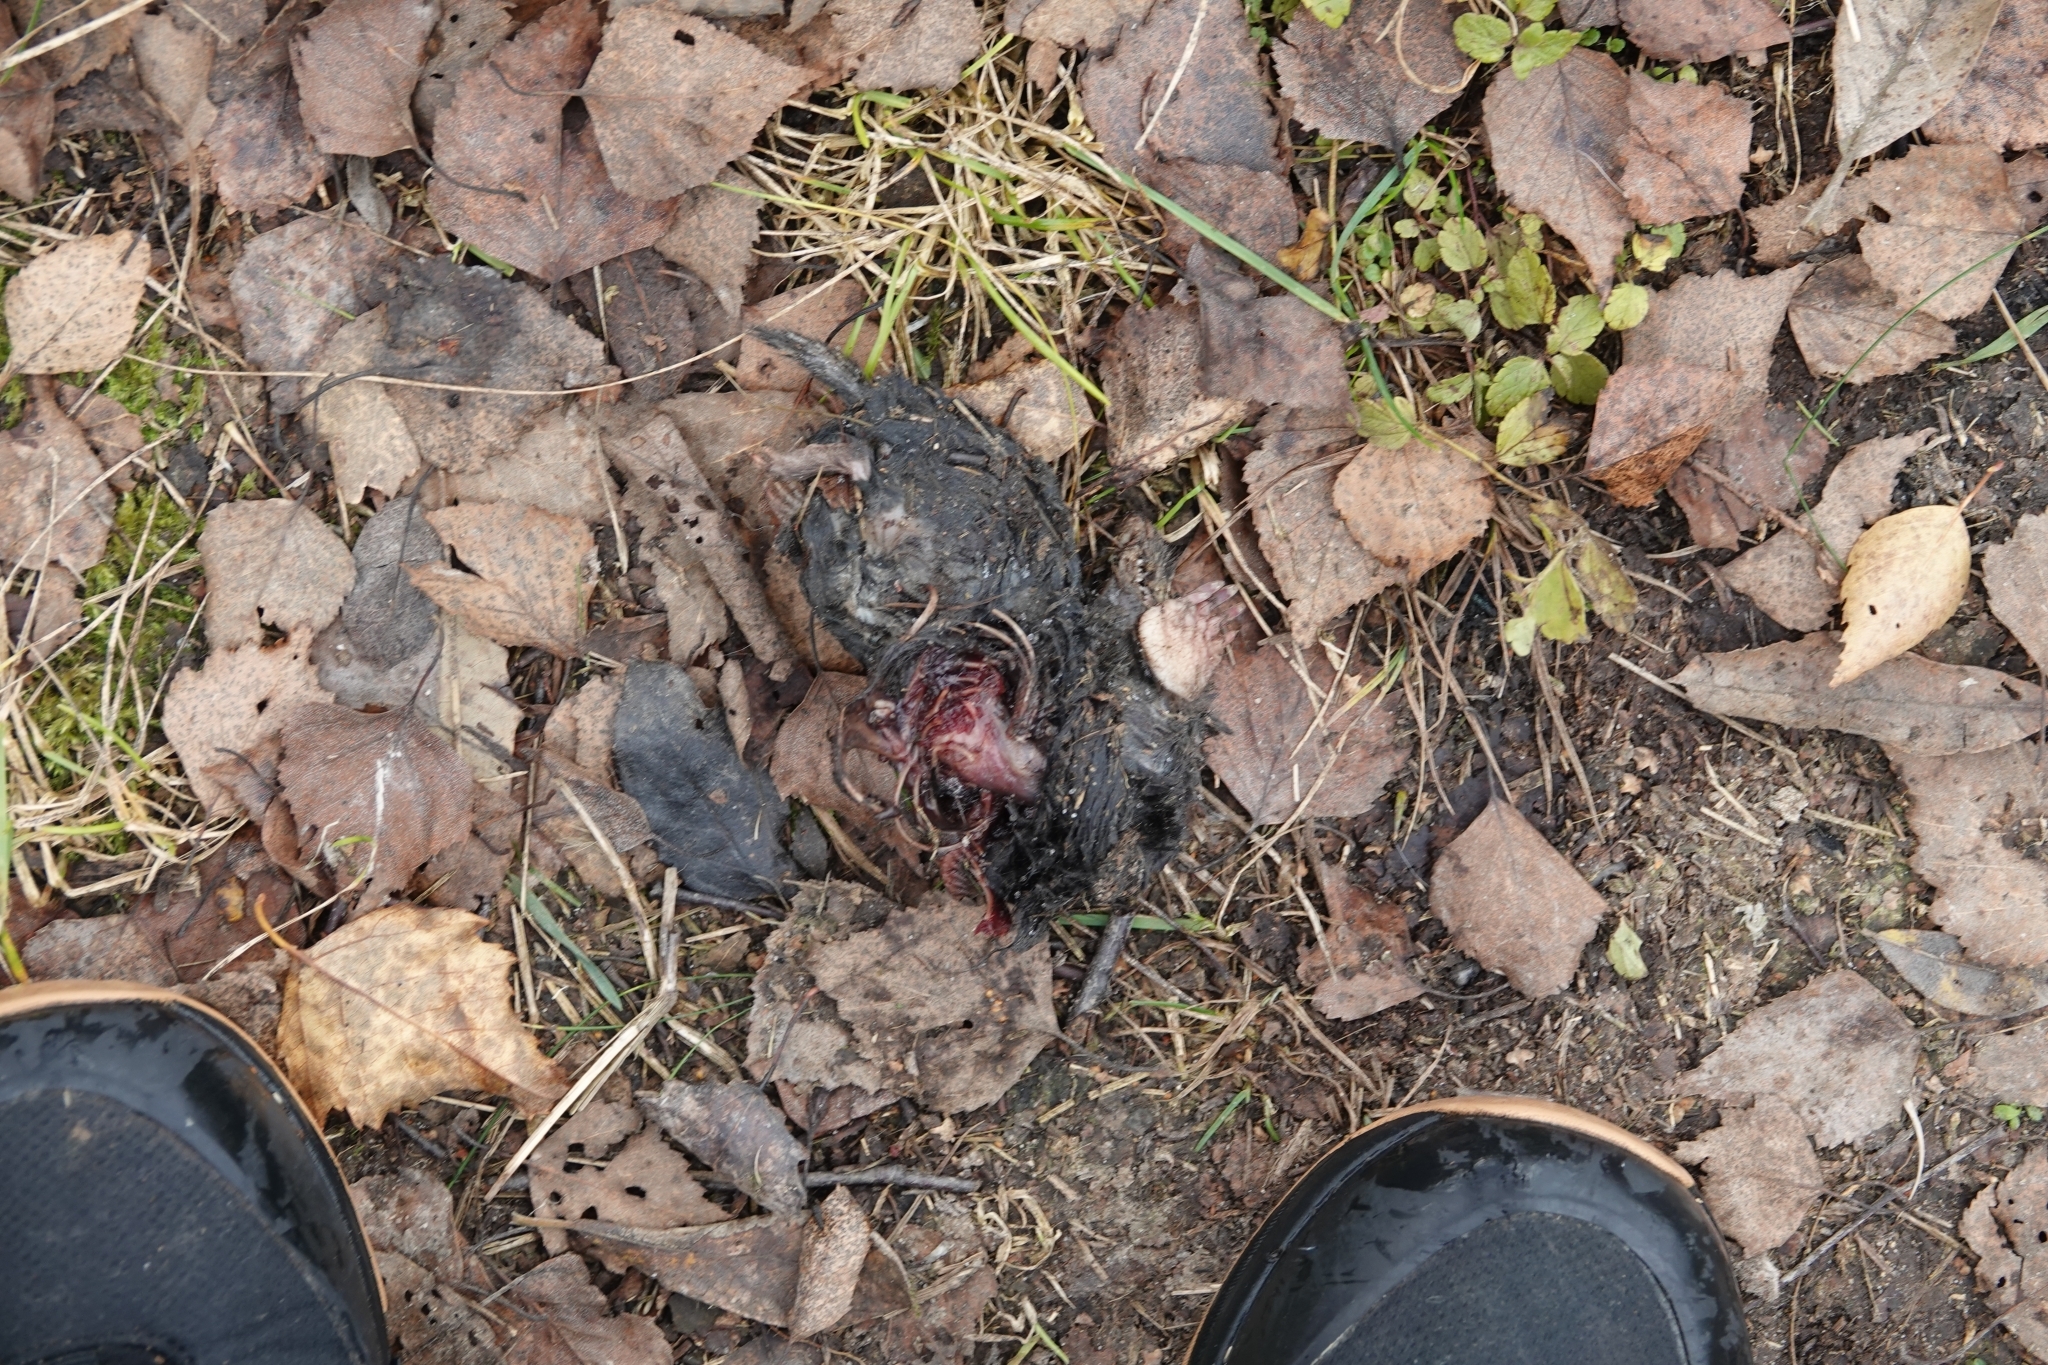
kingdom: Animalia
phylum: Chordata
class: Mammalia
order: Soricomorpha
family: Talpidae
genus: Talpa
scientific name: Talpa europaea
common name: European mole
